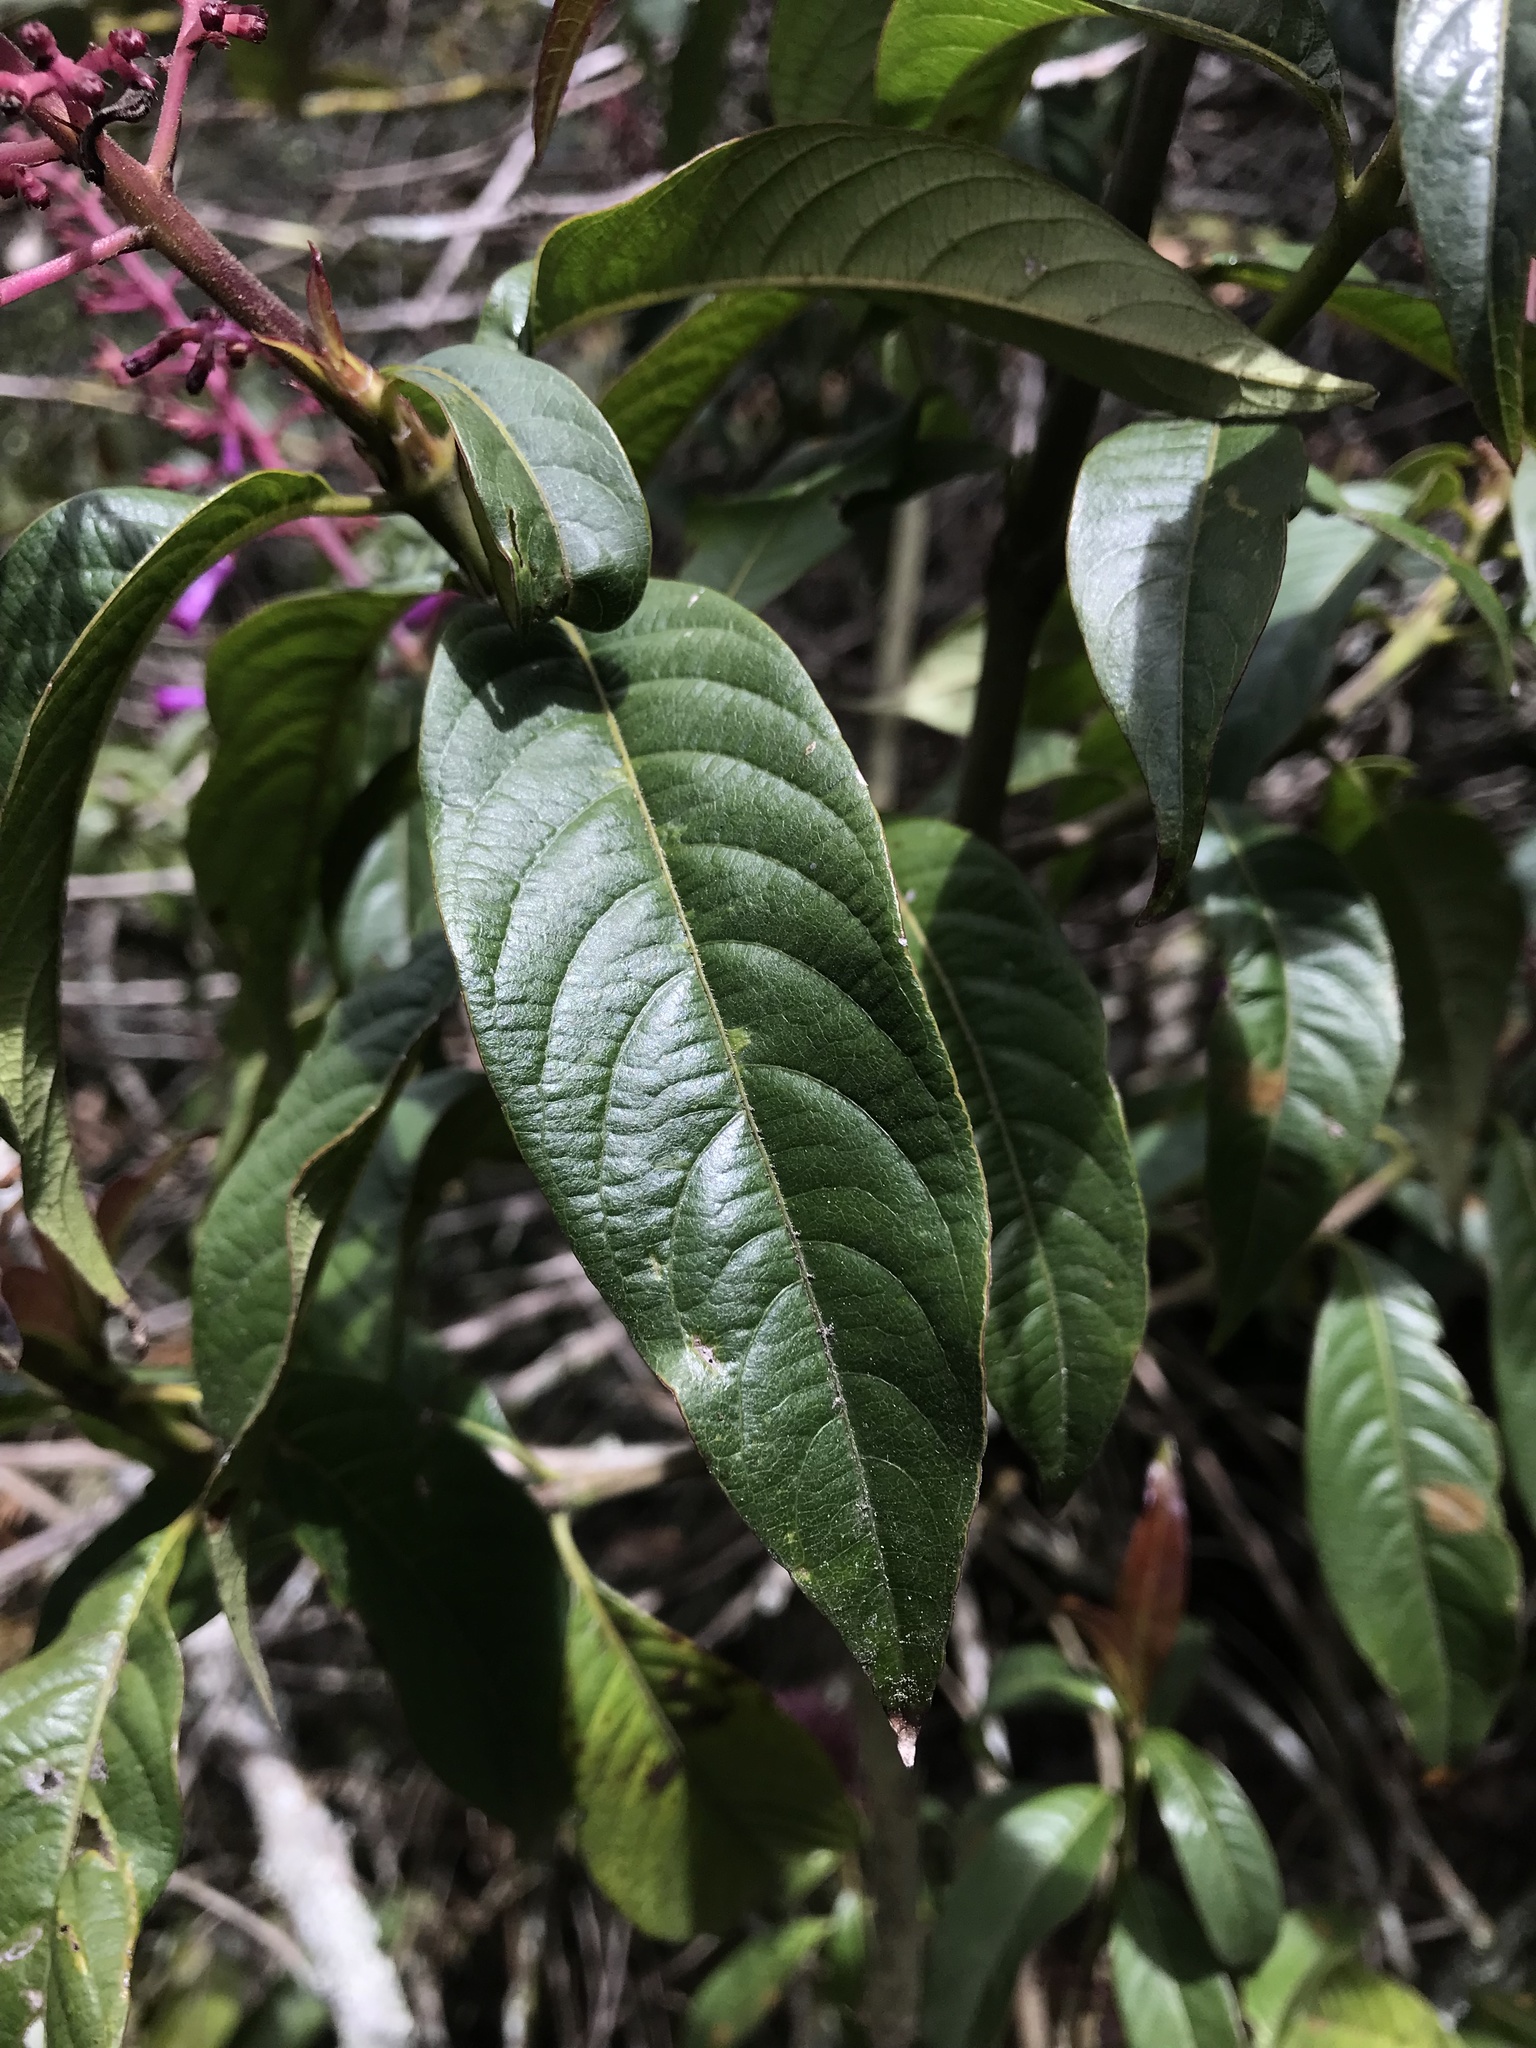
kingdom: Plantae
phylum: Tracheophyta
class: Magnoliopsida
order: Gentianales
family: Rubiaceae
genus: Palicourea
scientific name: Palicourea angustifolia
